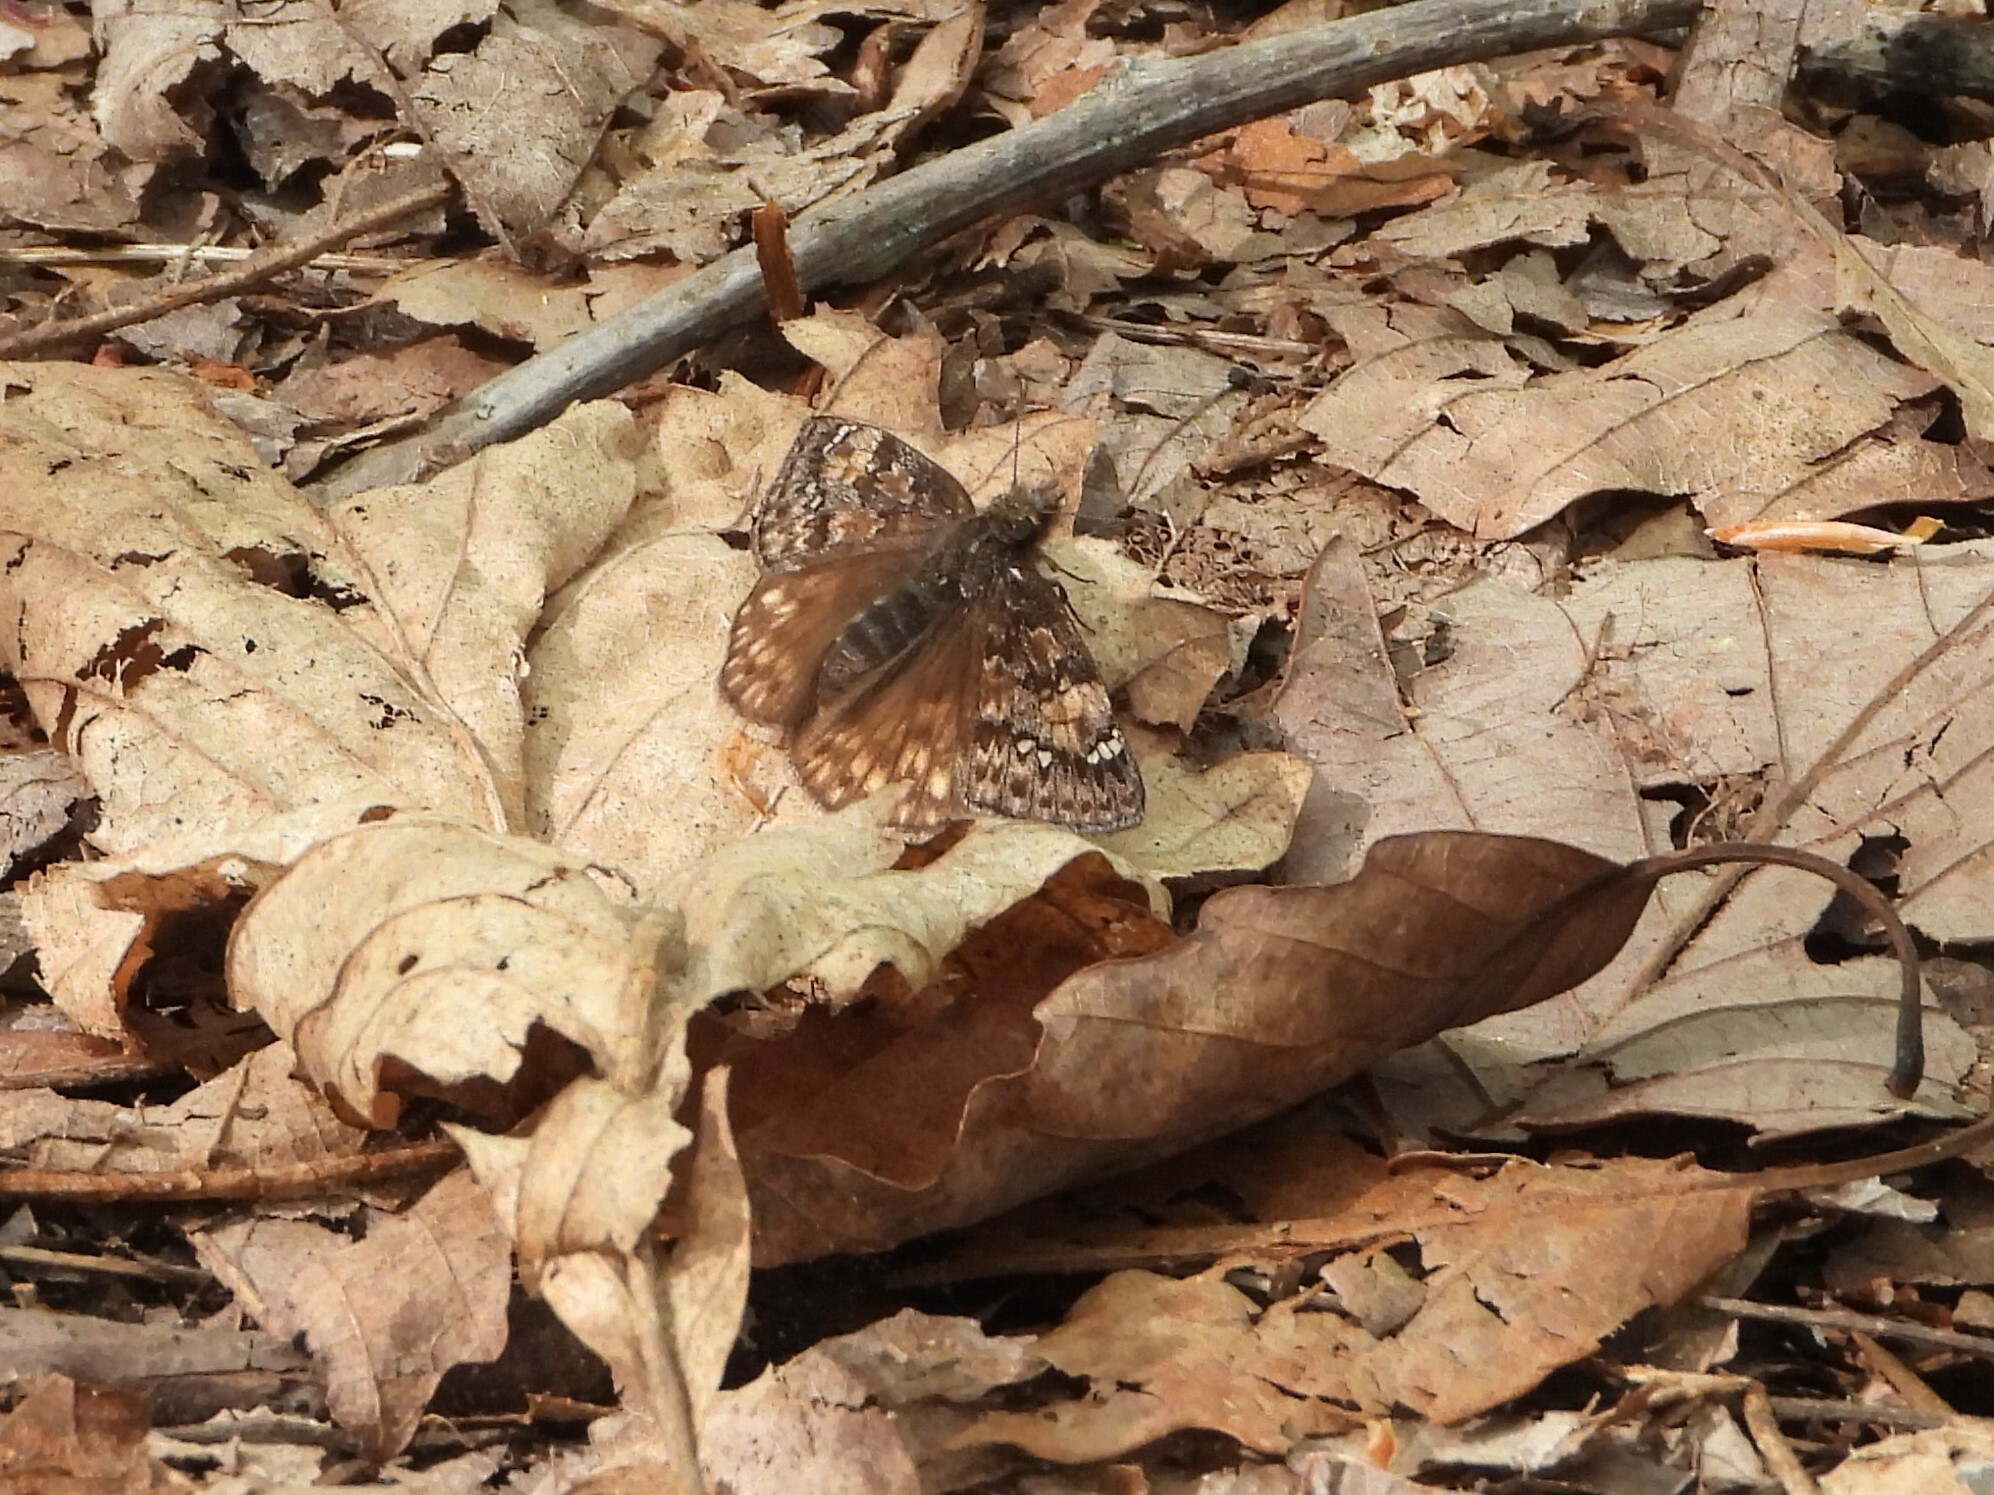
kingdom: Animalia
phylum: Arthropoda
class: Insecta
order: Lepidoptera
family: Hesperiidae
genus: Erynnis
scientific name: Erynnis juvenalis
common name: Juvenal's duskywing
